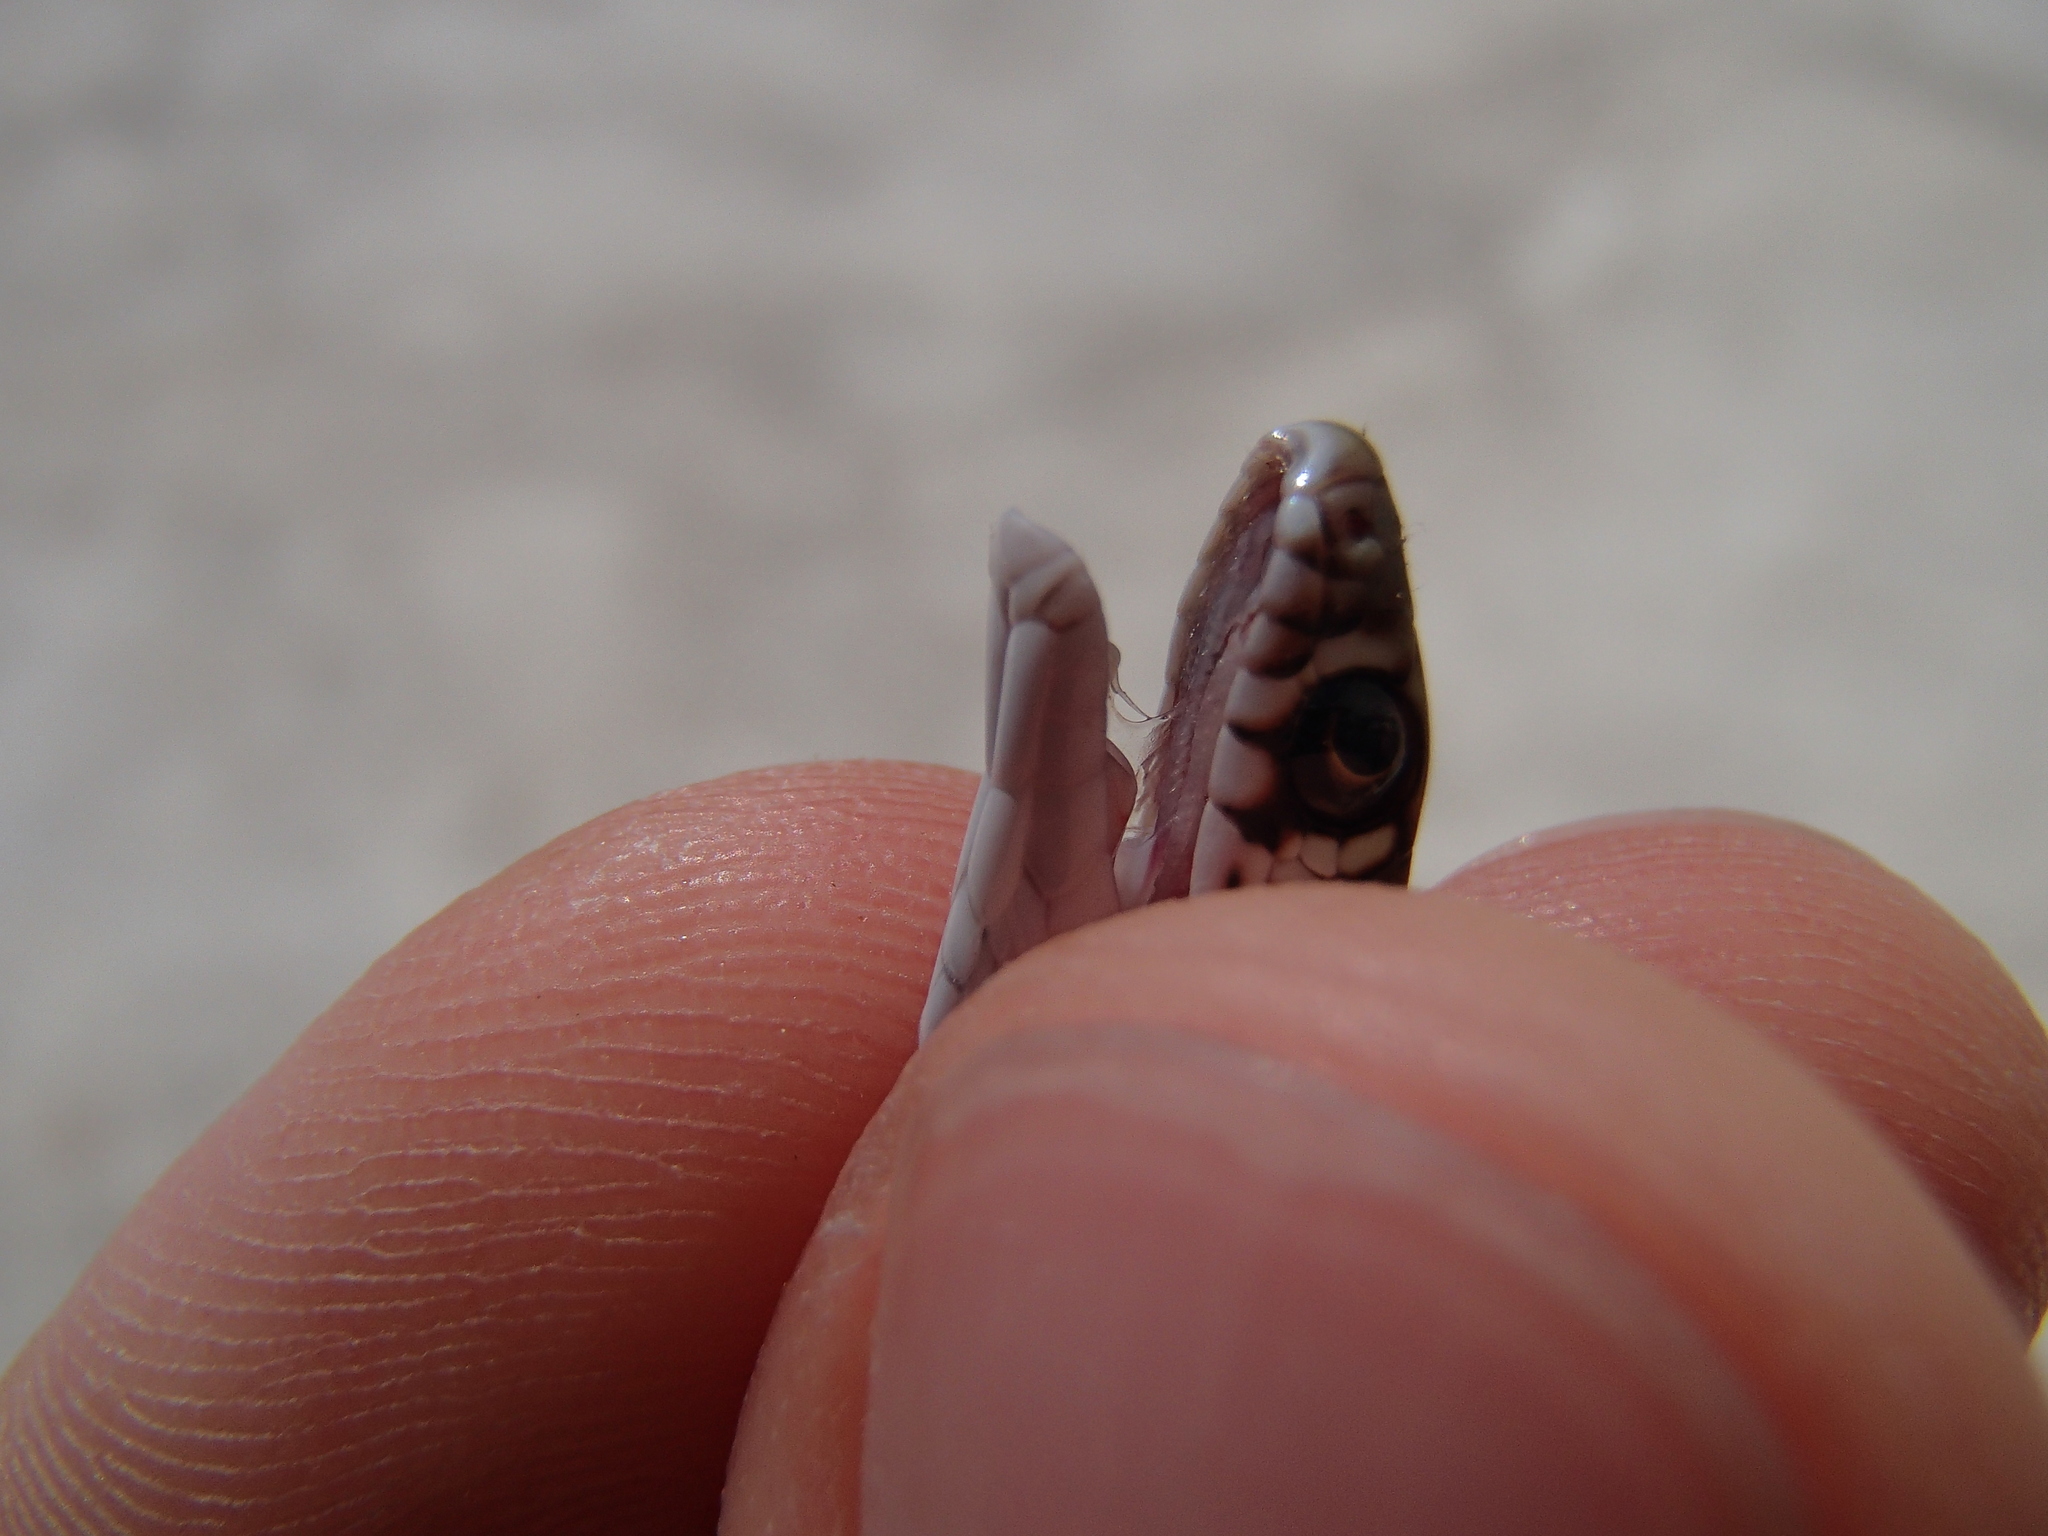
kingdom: Animalia
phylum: Chordata
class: Squamata
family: Colubridae
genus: Hierophis
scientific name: Hierophis gemonensis
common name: Balkan whip snake
